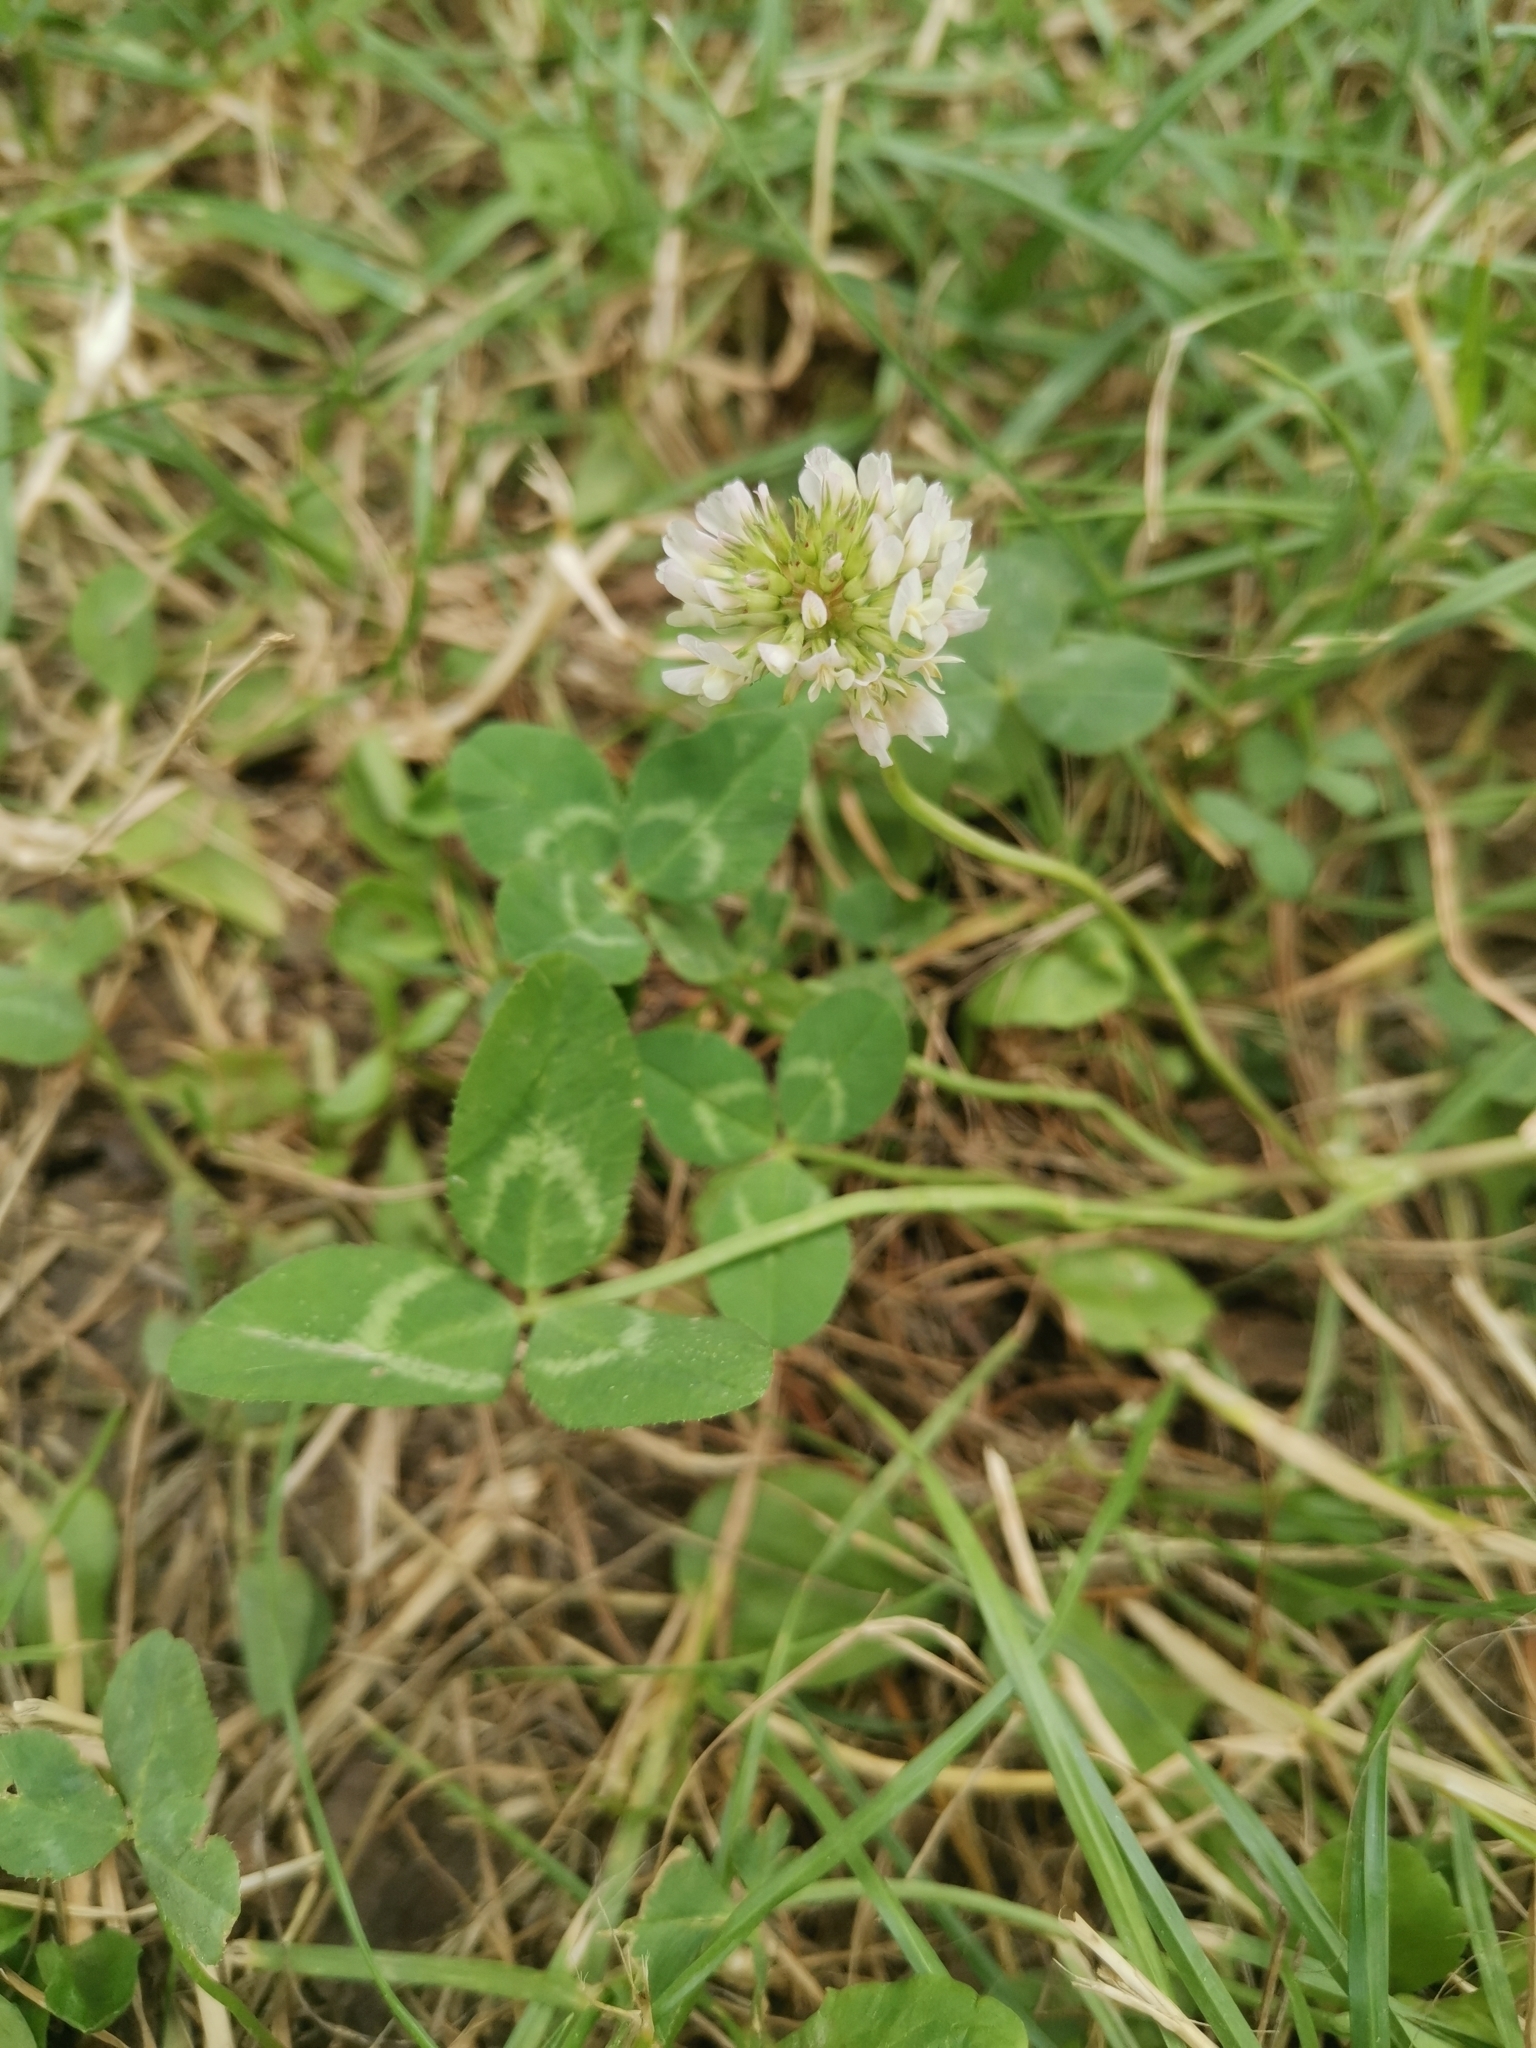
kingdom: Plantae
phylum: Tracheophyta
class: Magnoliopsida
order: Fabales
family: Fabaceae
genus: Trifolium
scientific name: Trifolium repens
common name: White clover
